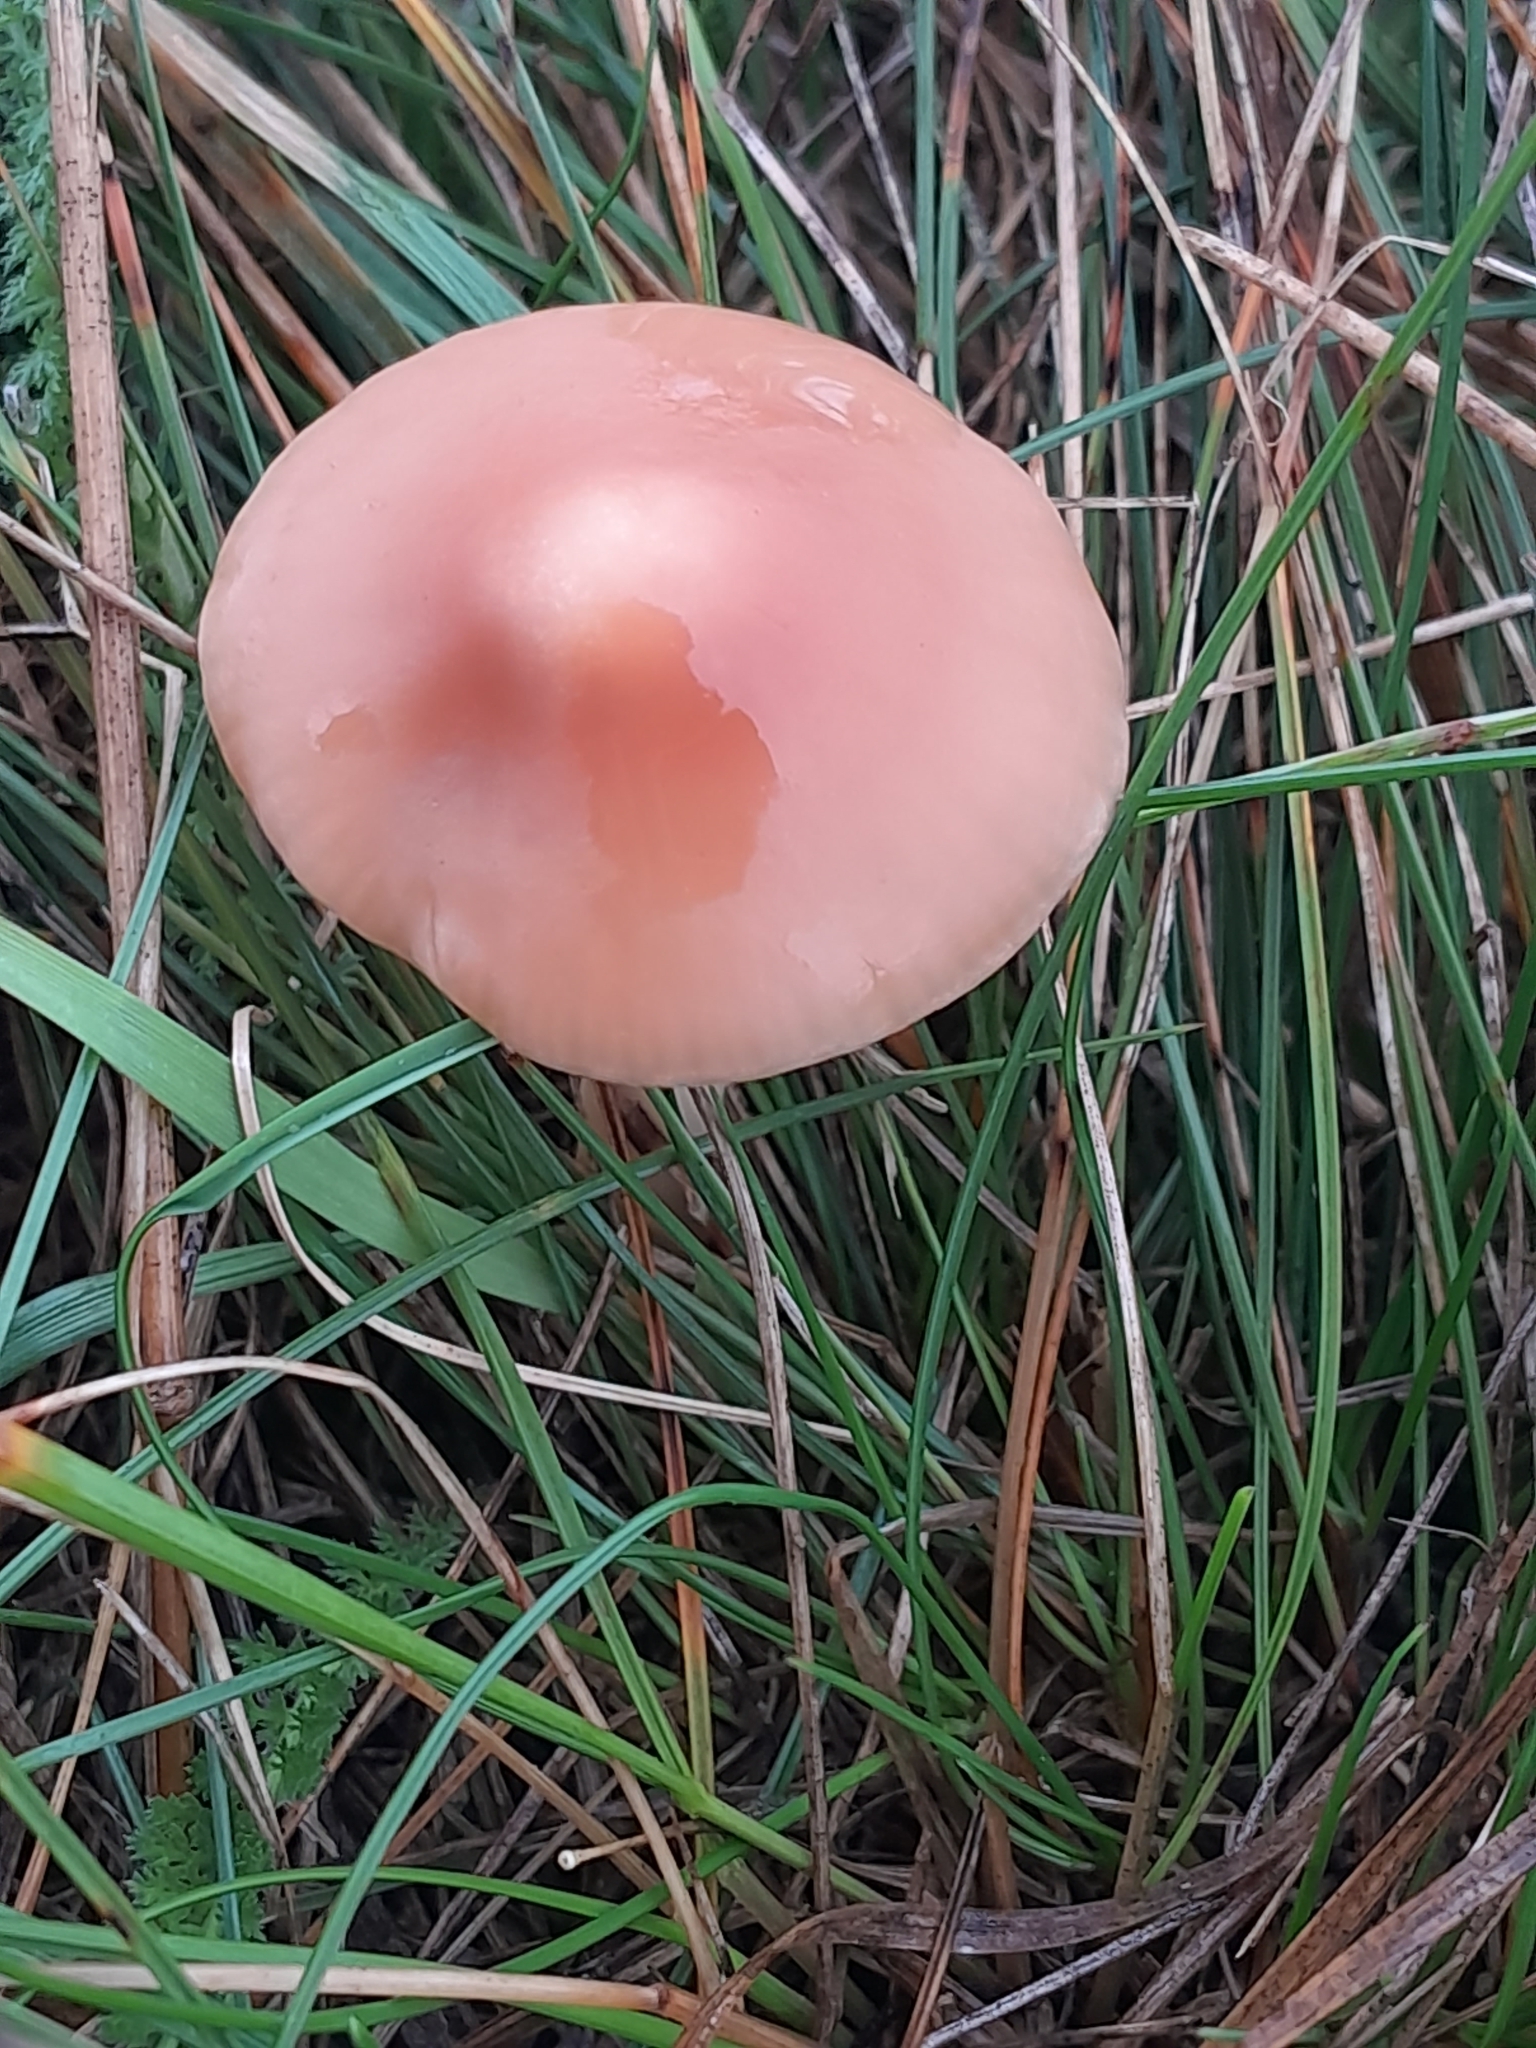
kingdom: Fungi
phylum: Basidiomycota
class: Agaricomycetes
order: Agaricales
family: Marasmiaceae
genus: Marasmius
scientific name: Marasmius oreades
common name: Fairy ring champignon
